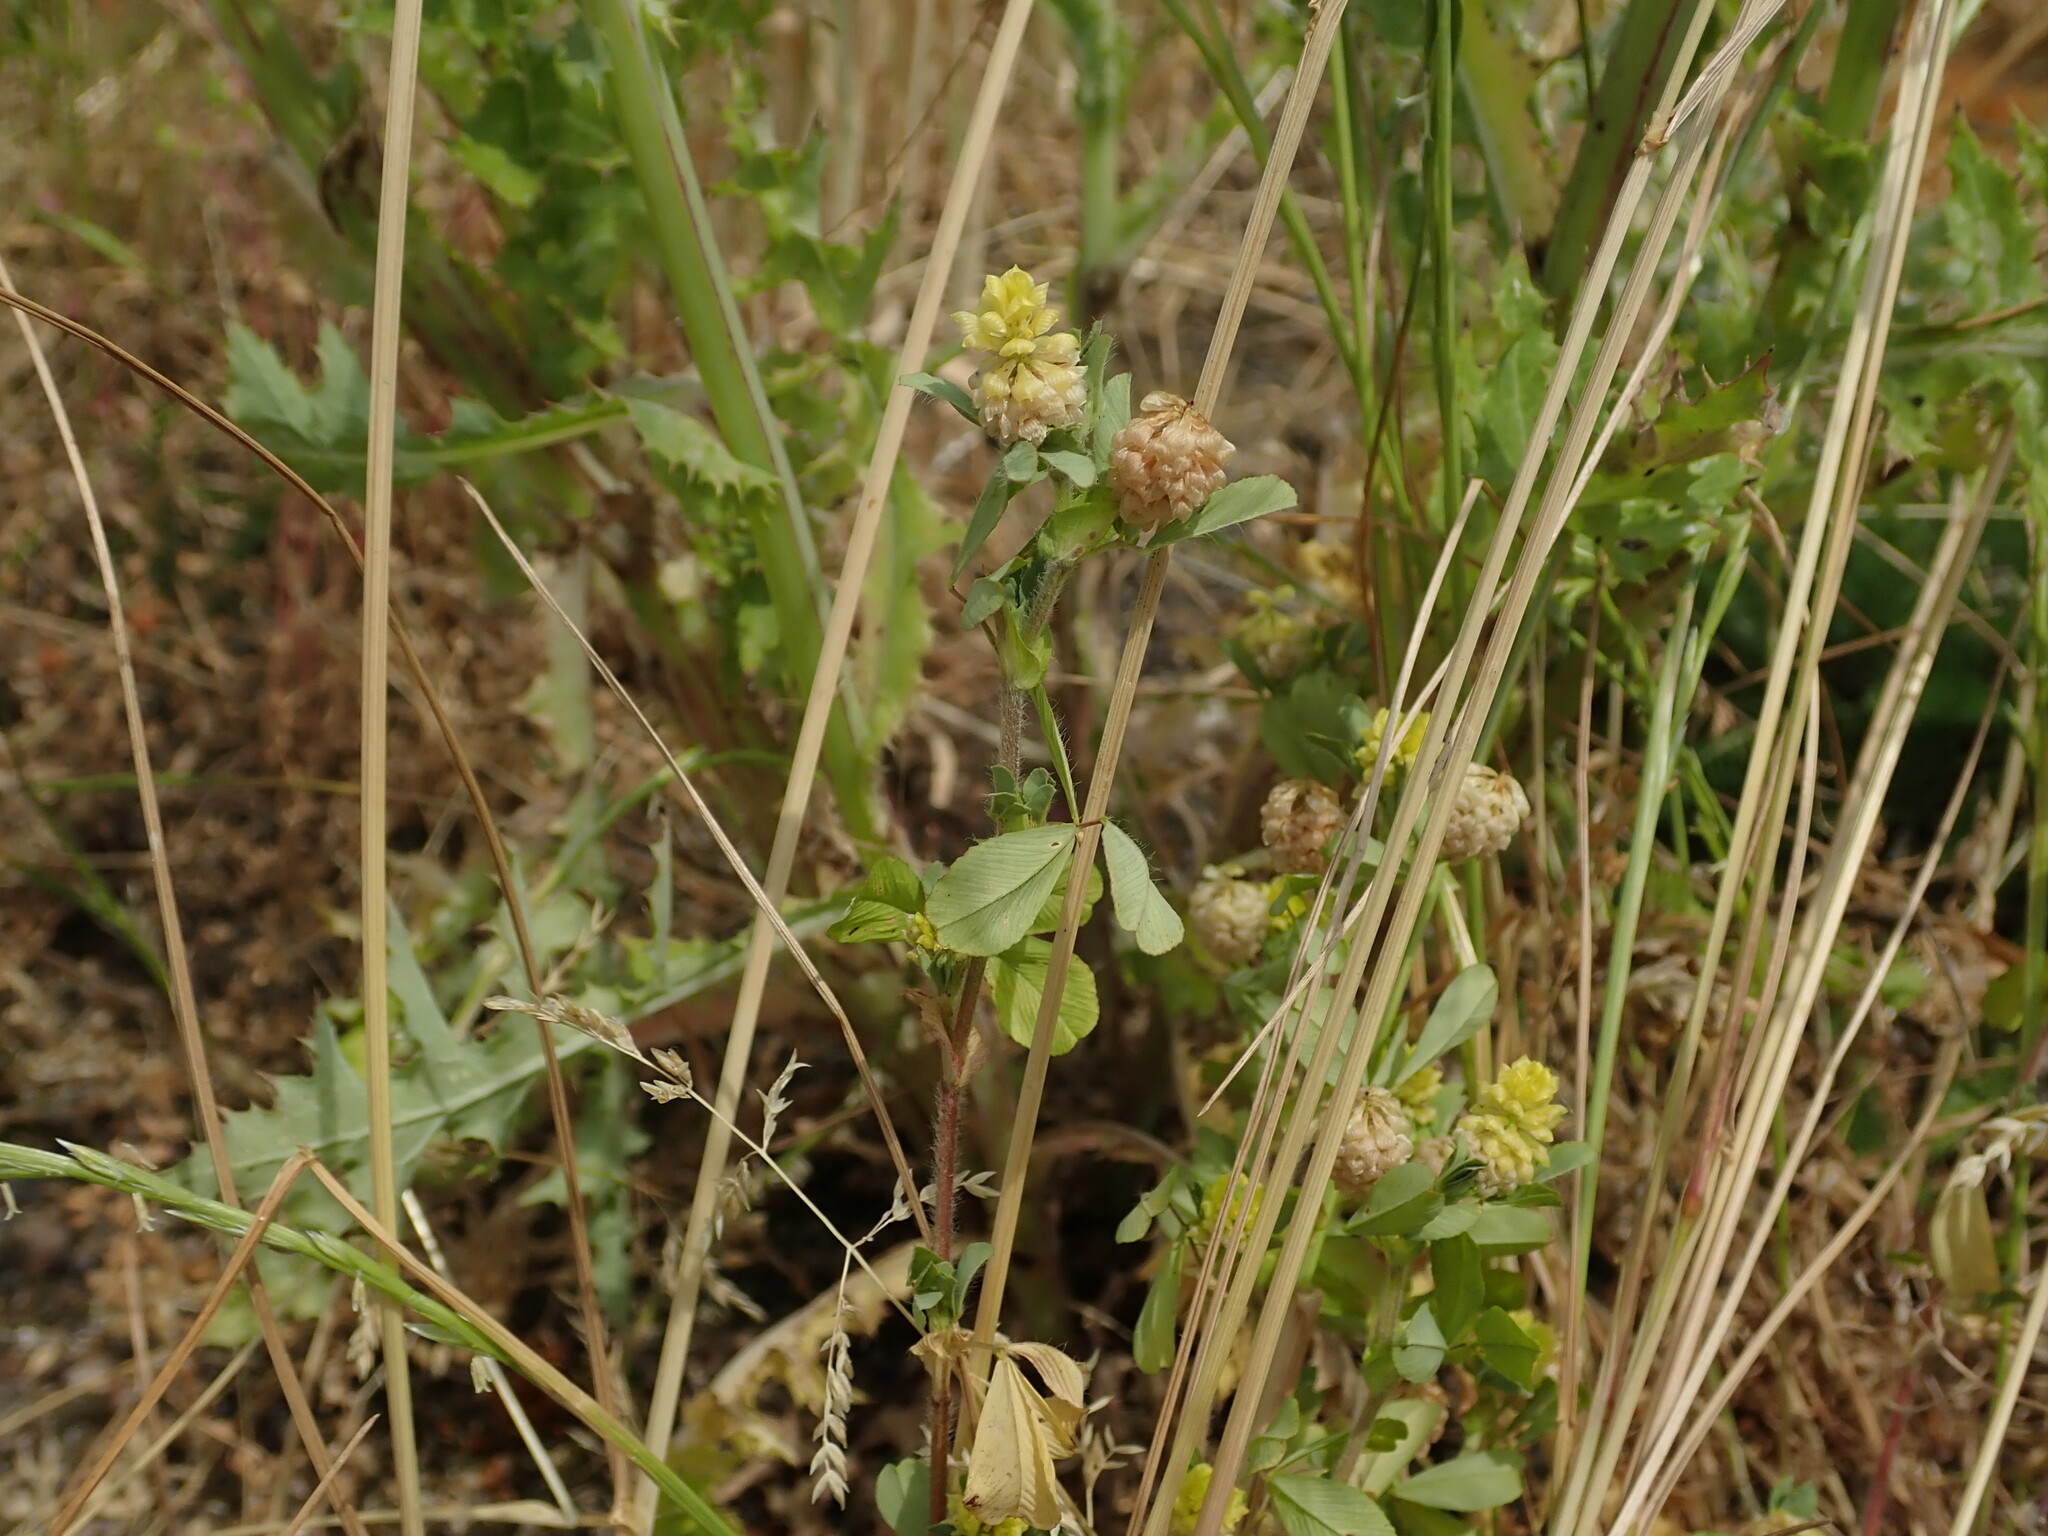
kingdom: Plantae
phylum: Tracheophyta
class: Magnoliopsida
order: Fabales
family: Fabaceae
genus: Trifolium
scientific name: Trifolium campestre
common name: Field clover
